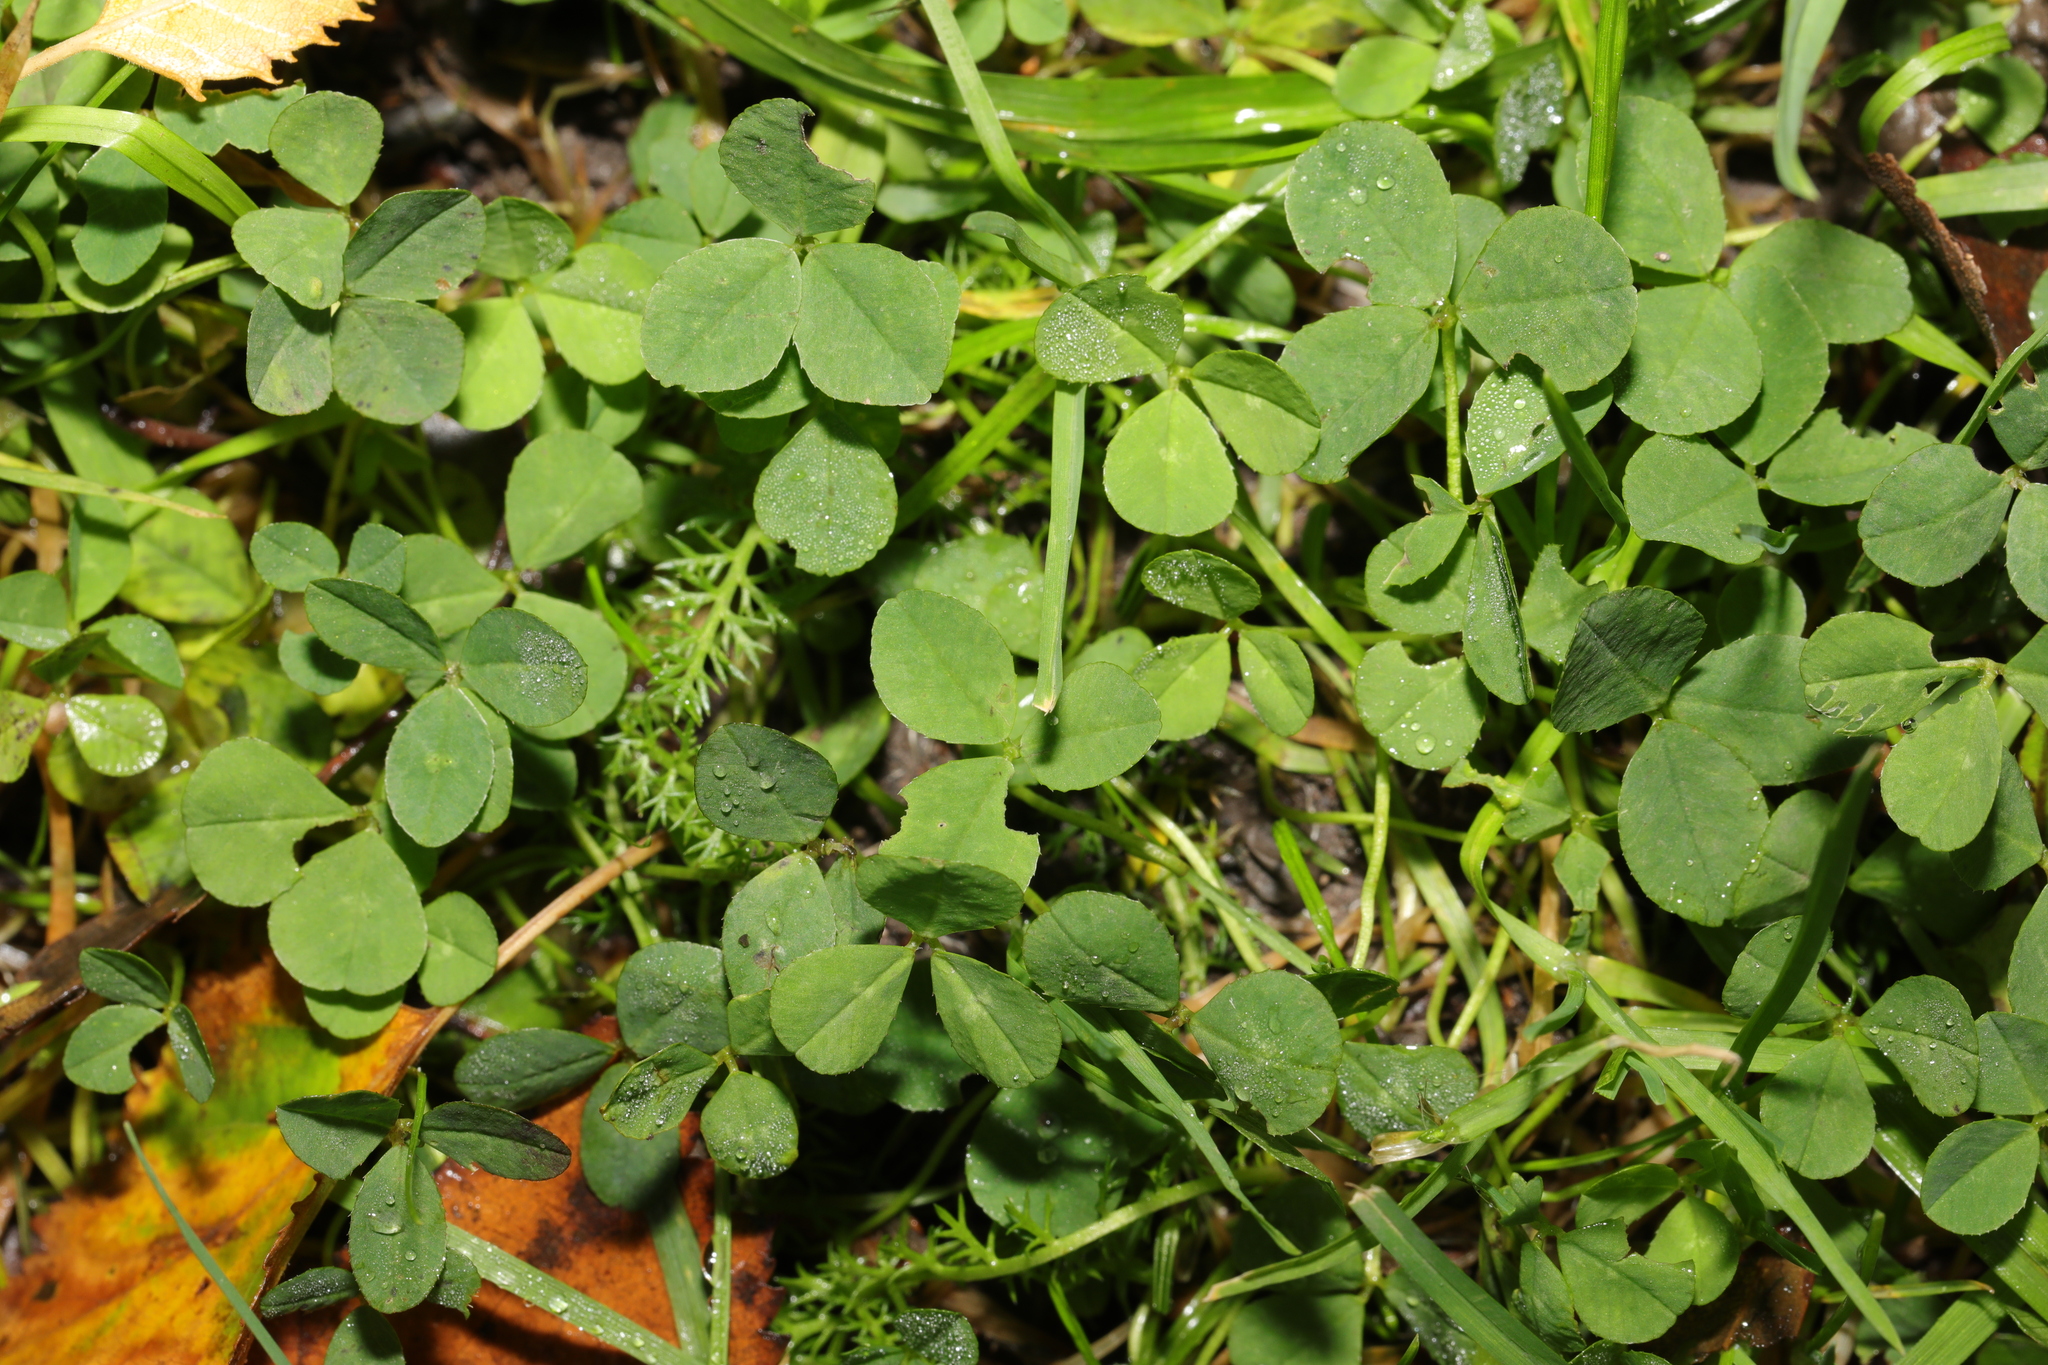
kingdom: Plantae
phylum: Tracheophyta
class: Magnoliopsida
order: Fabales
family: Fabaceae
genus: Trifolium
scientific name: Trifolium repens
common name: White clover
